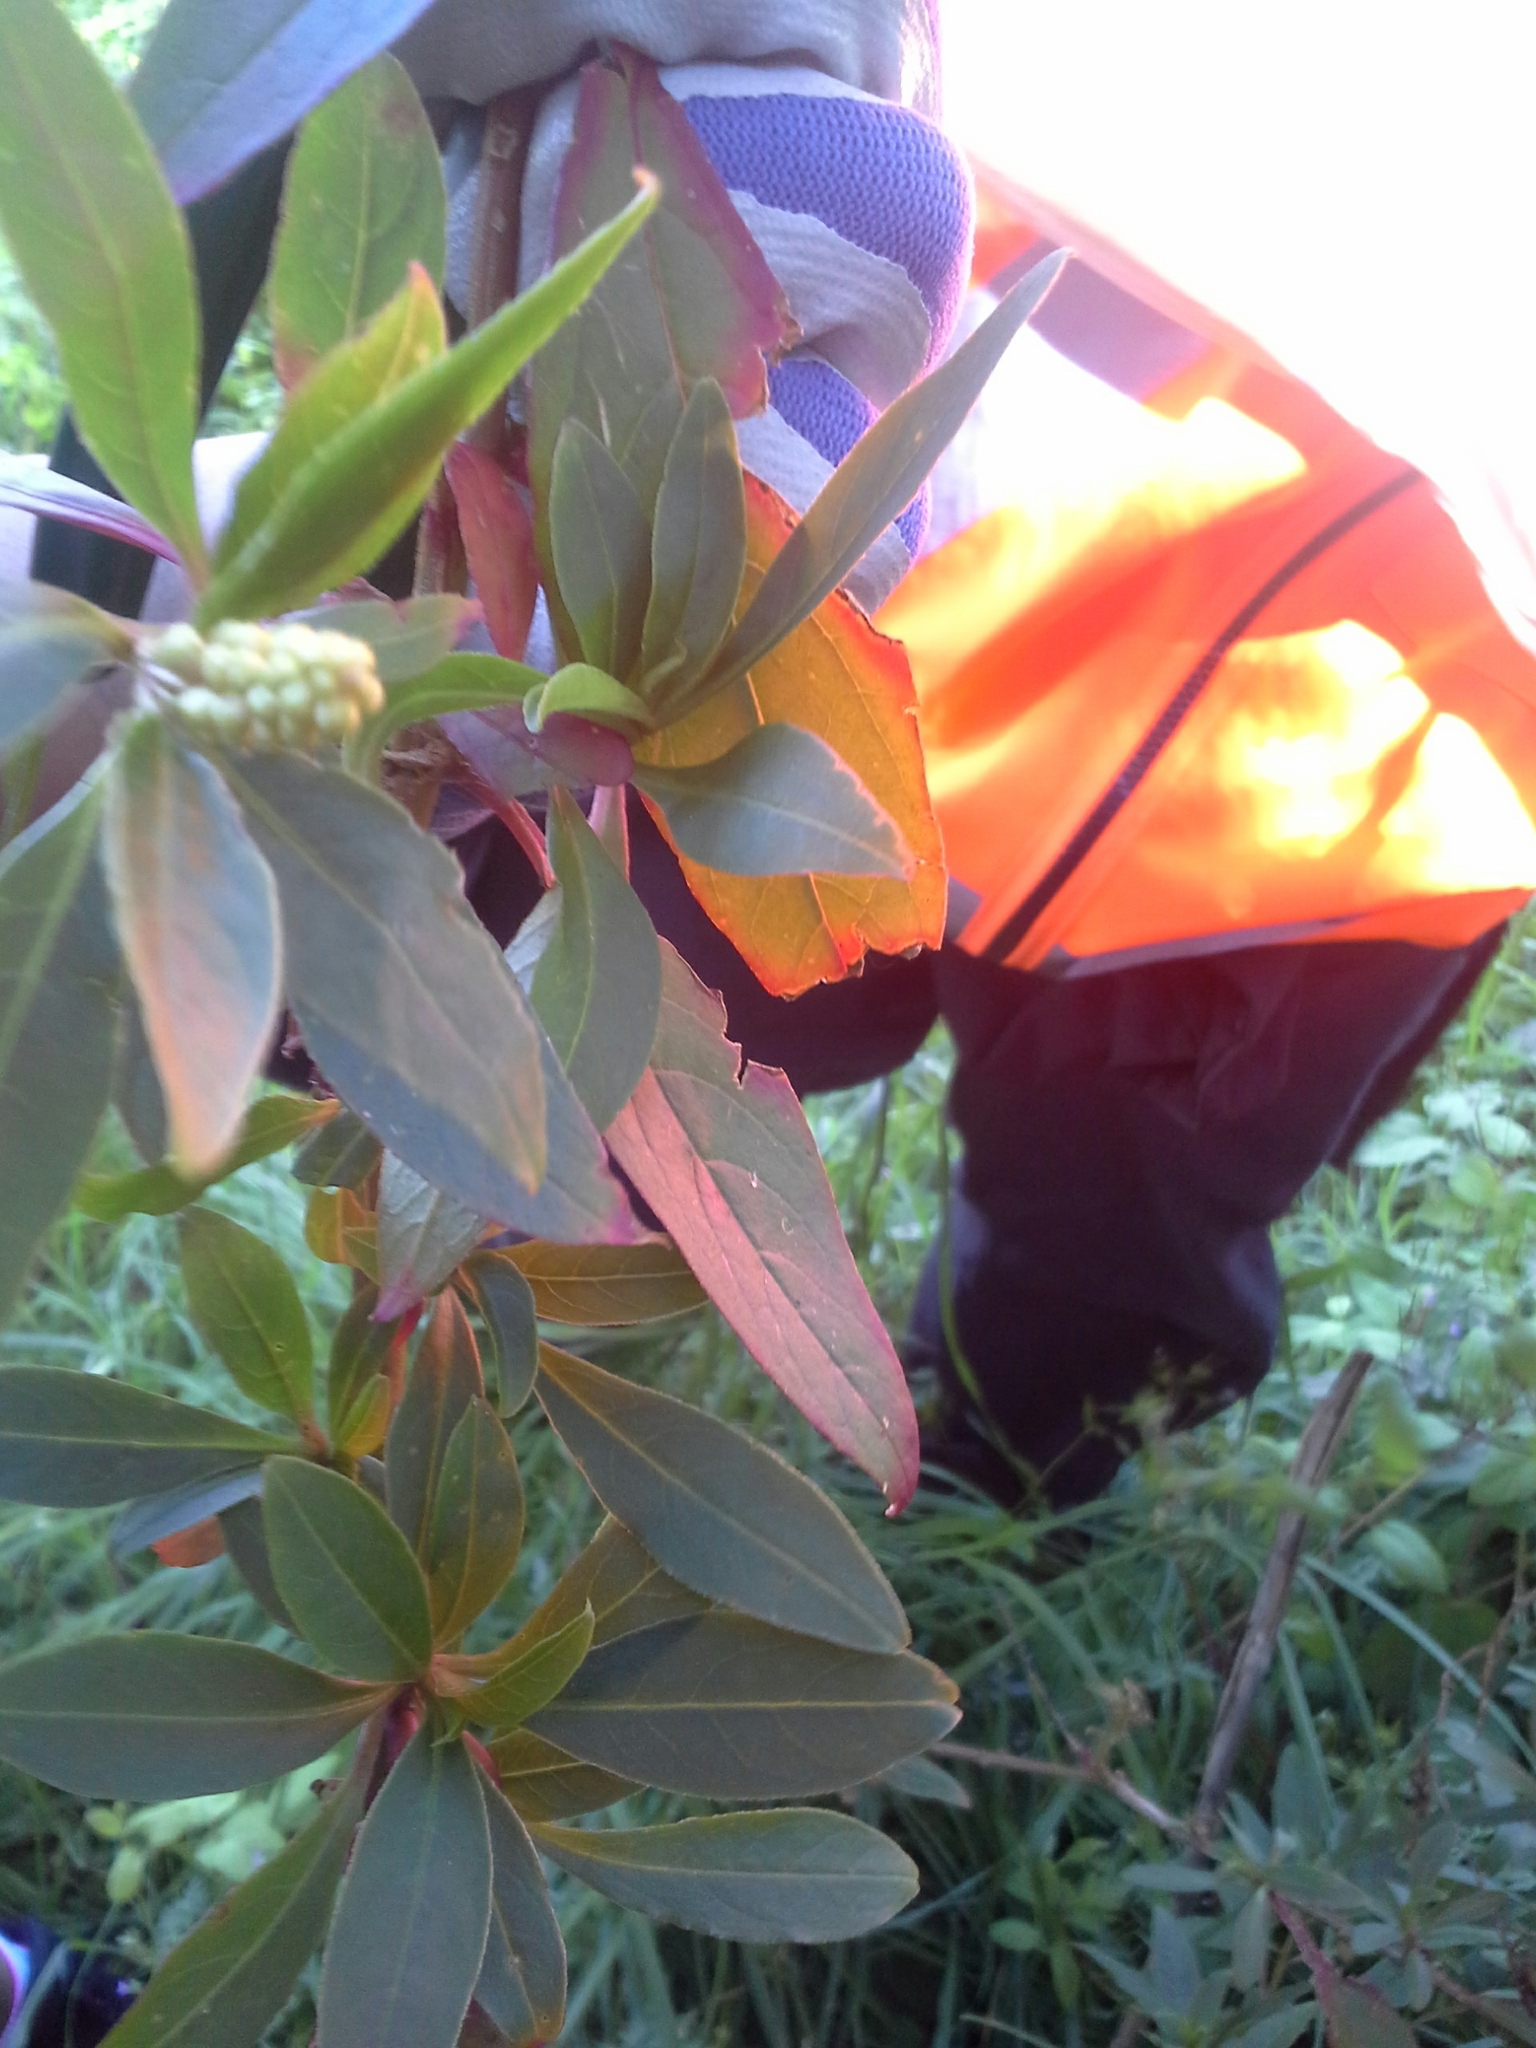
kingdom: Plantae
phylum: Tracheophyta
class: Magnoliopsida
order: Caryophyllales
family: Phytolaccaceae
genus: Phytolacca
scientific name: Phytolacca icosandra
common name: Button pokeweed
